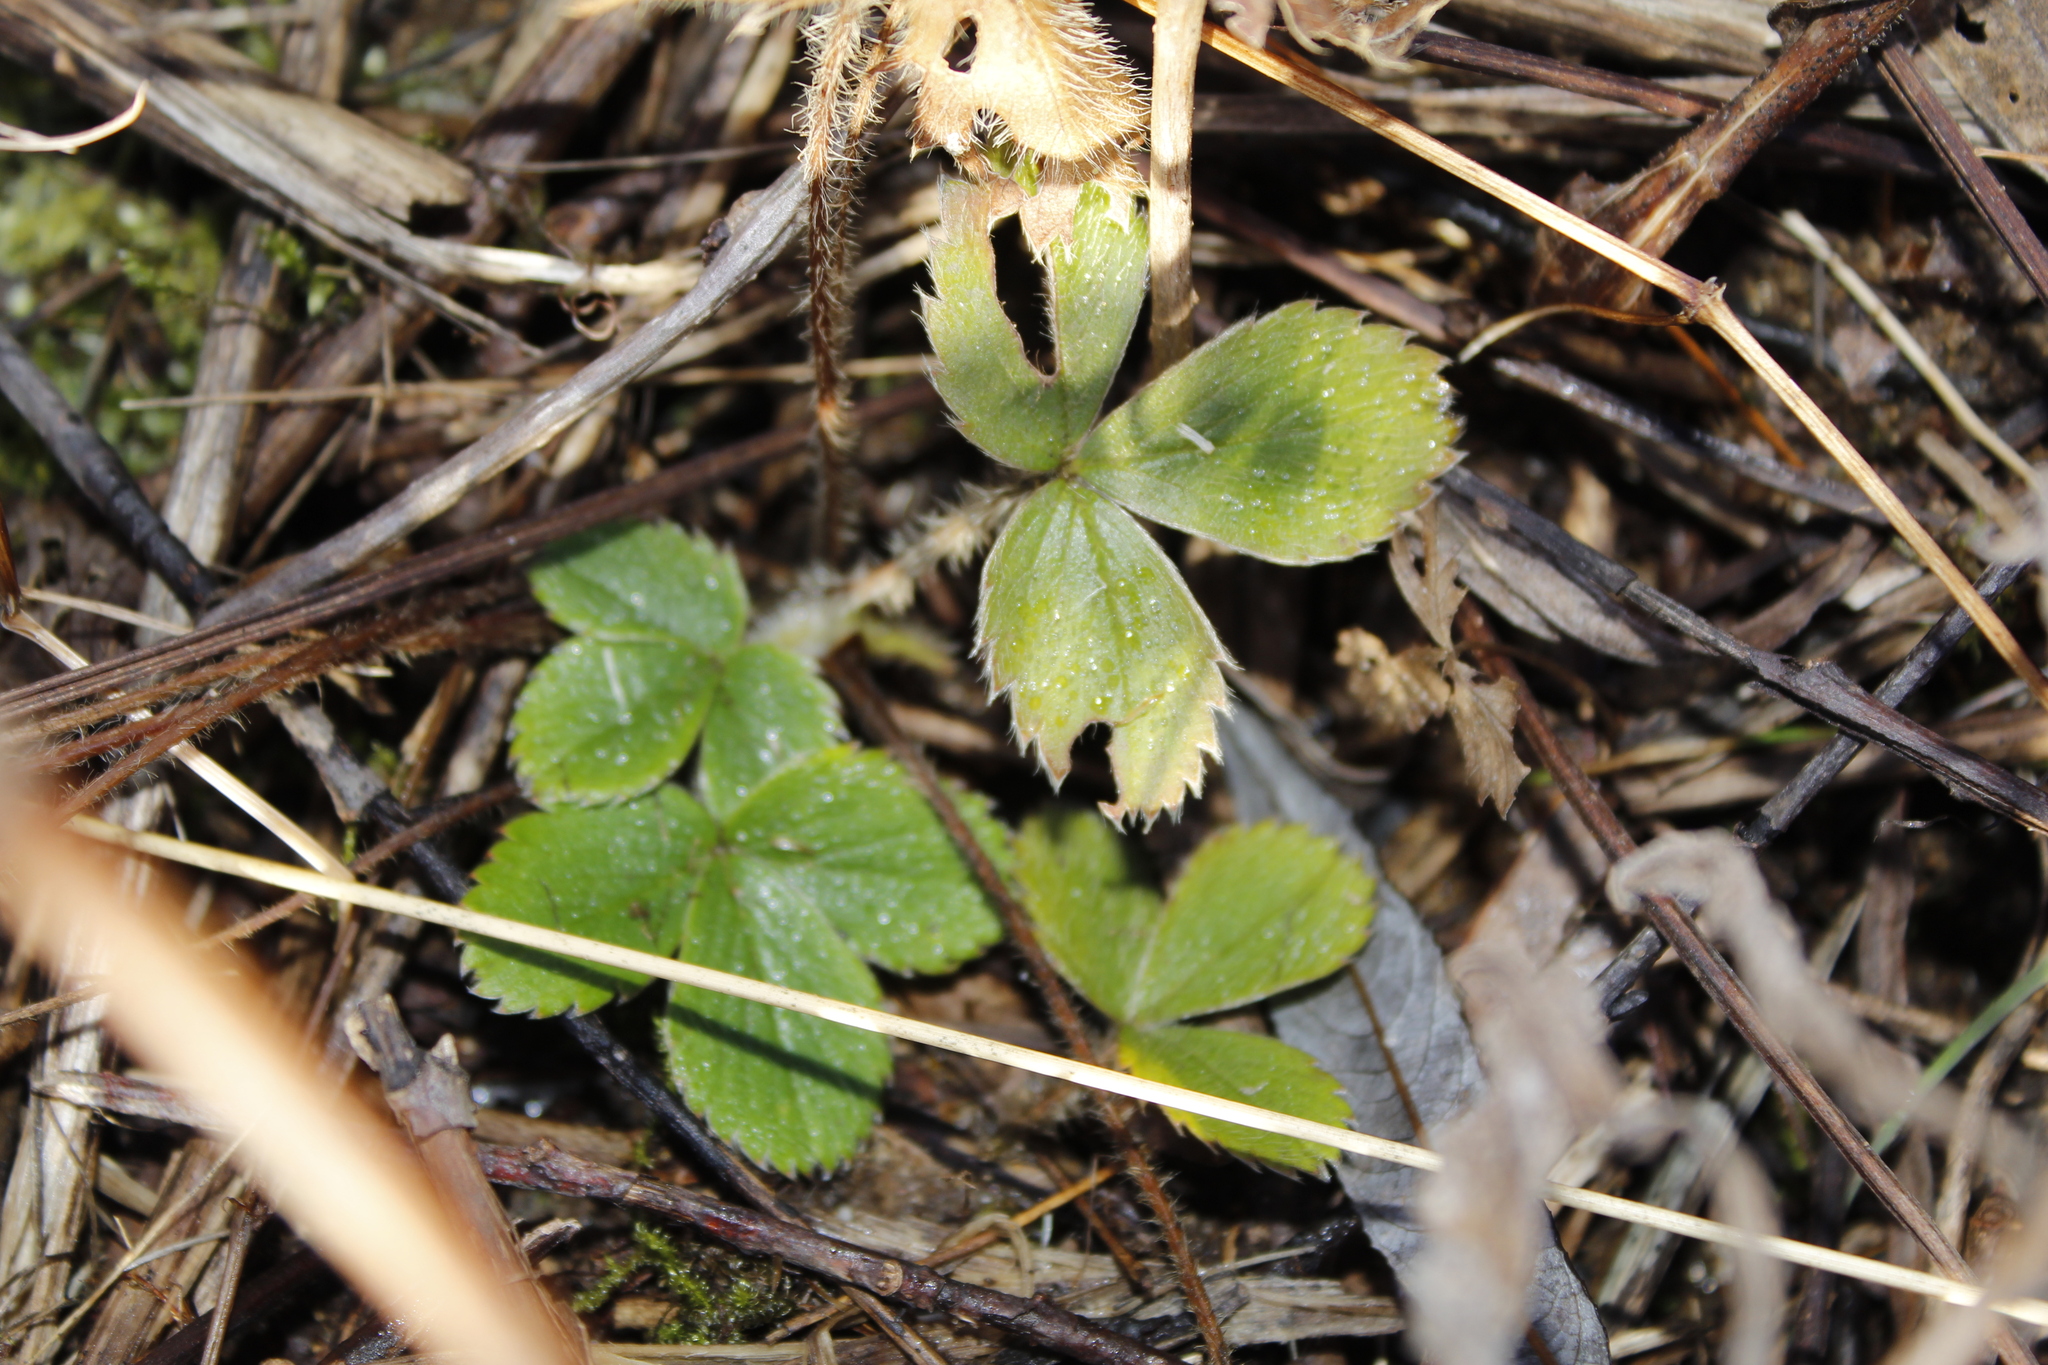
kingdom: Plantae
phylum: Tracheophyta
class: Magnoliopsida
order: Rosales
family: Rosaceae
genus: Fragaria
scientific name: Fragaria virginiana
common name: Thickleaved wild strawberry
